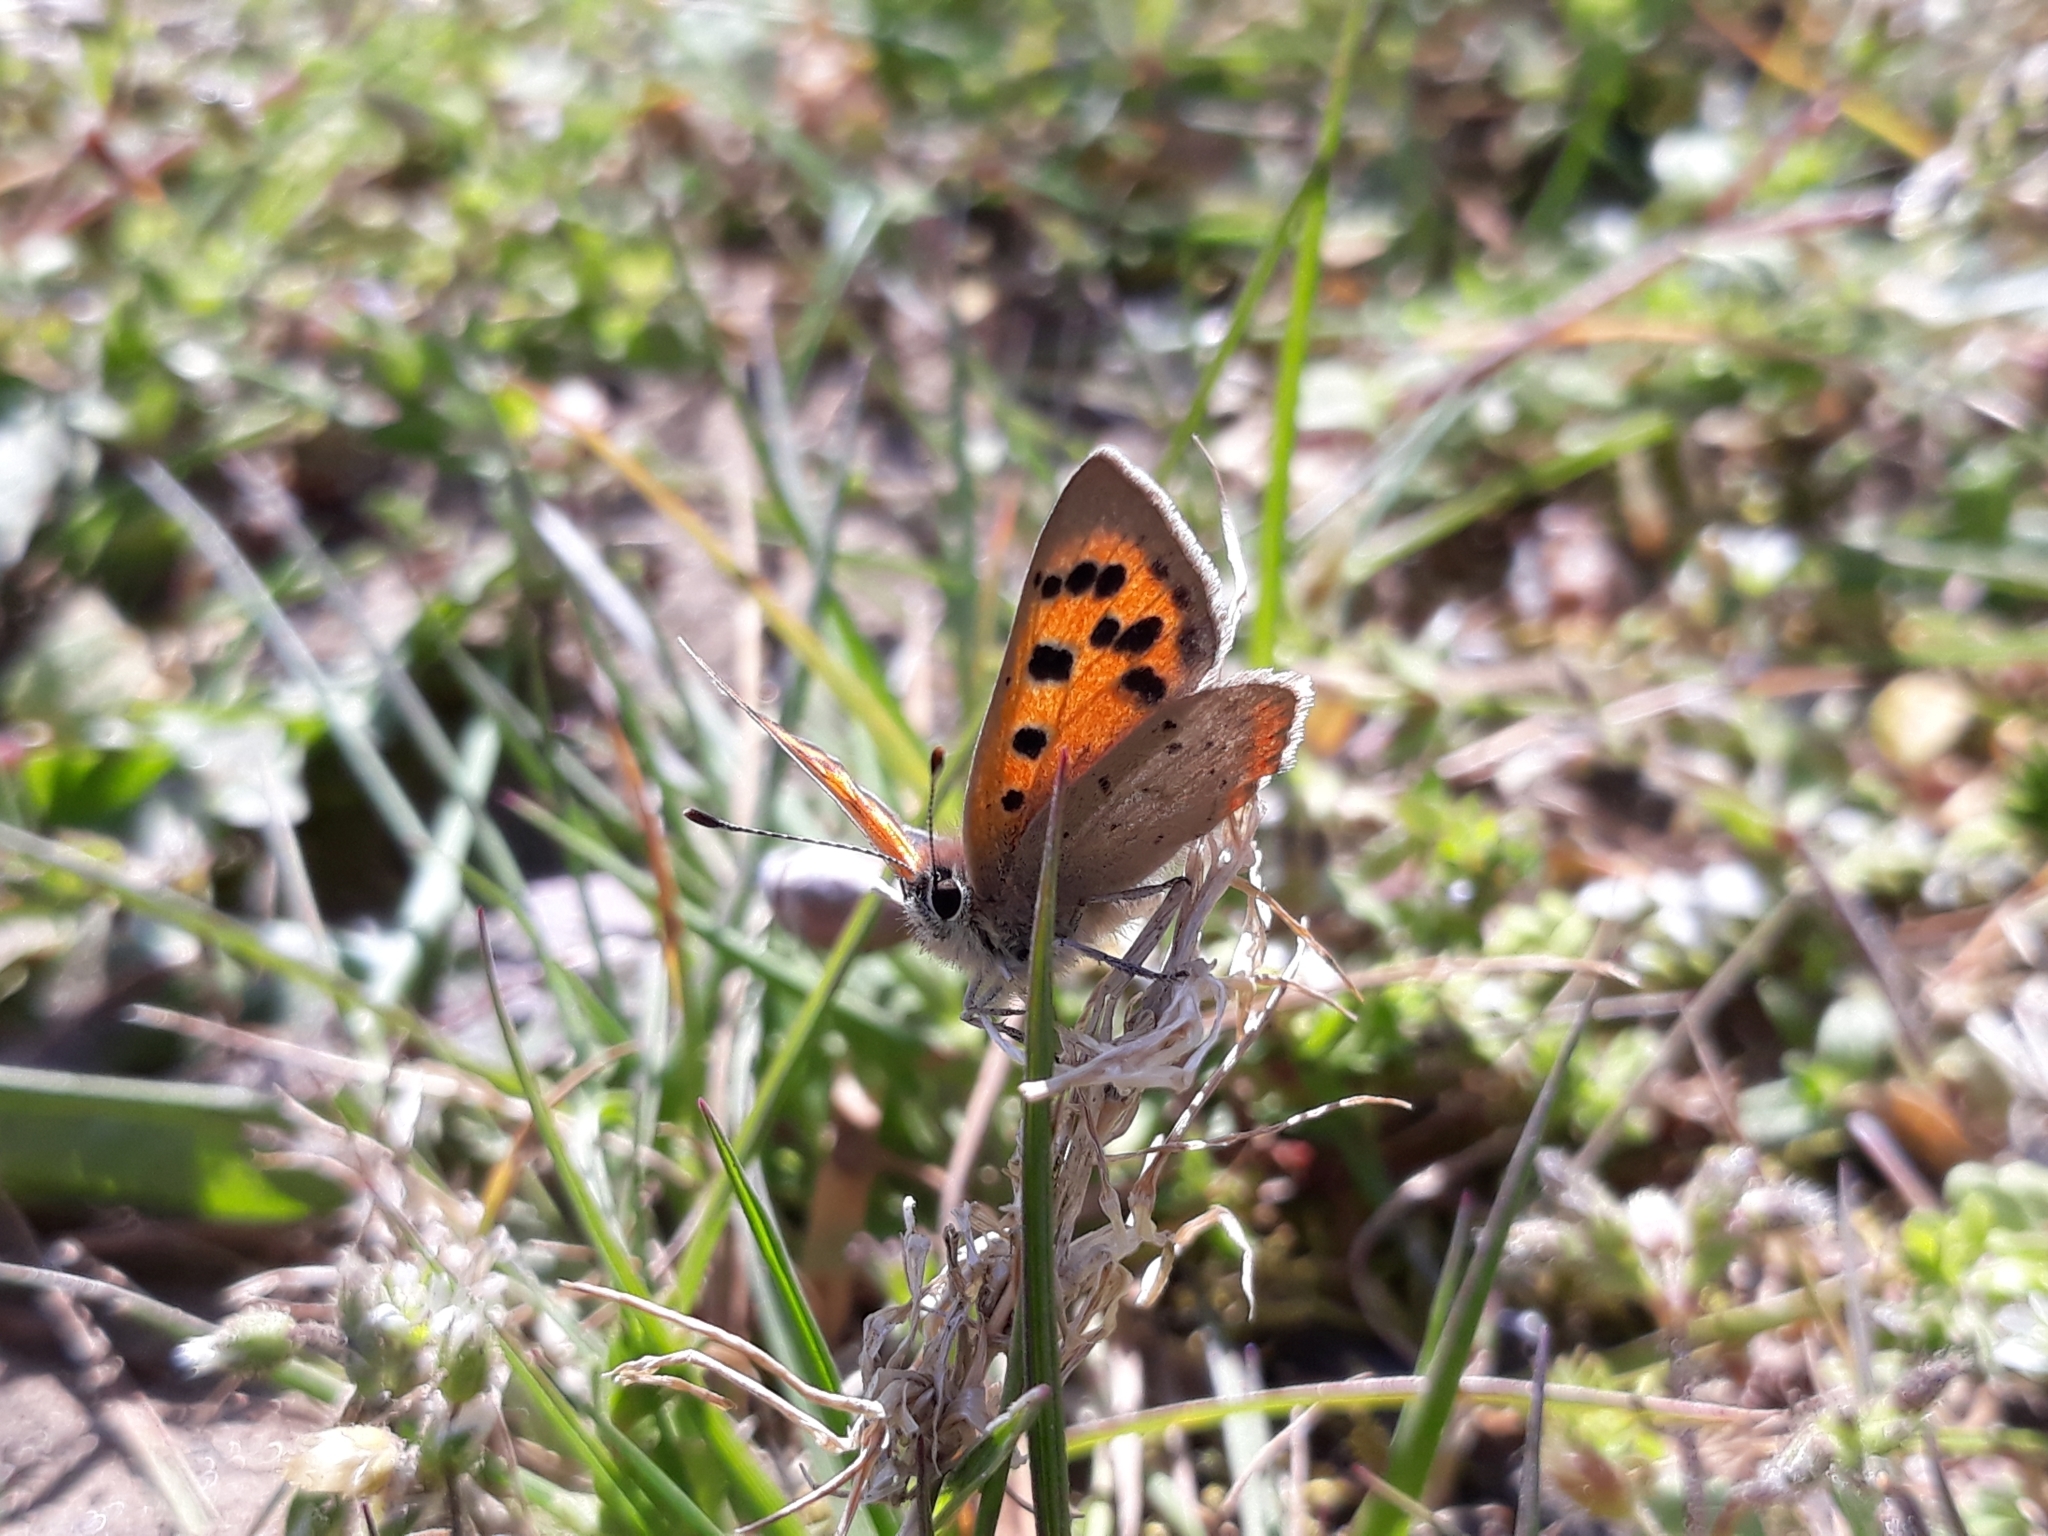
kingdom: Animalia
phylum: Arthropoda
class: Insecta
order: Lepidoptera
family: Lycaenidae
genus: Lycaena
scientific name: Lycaena phlaeas
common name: Small copper
